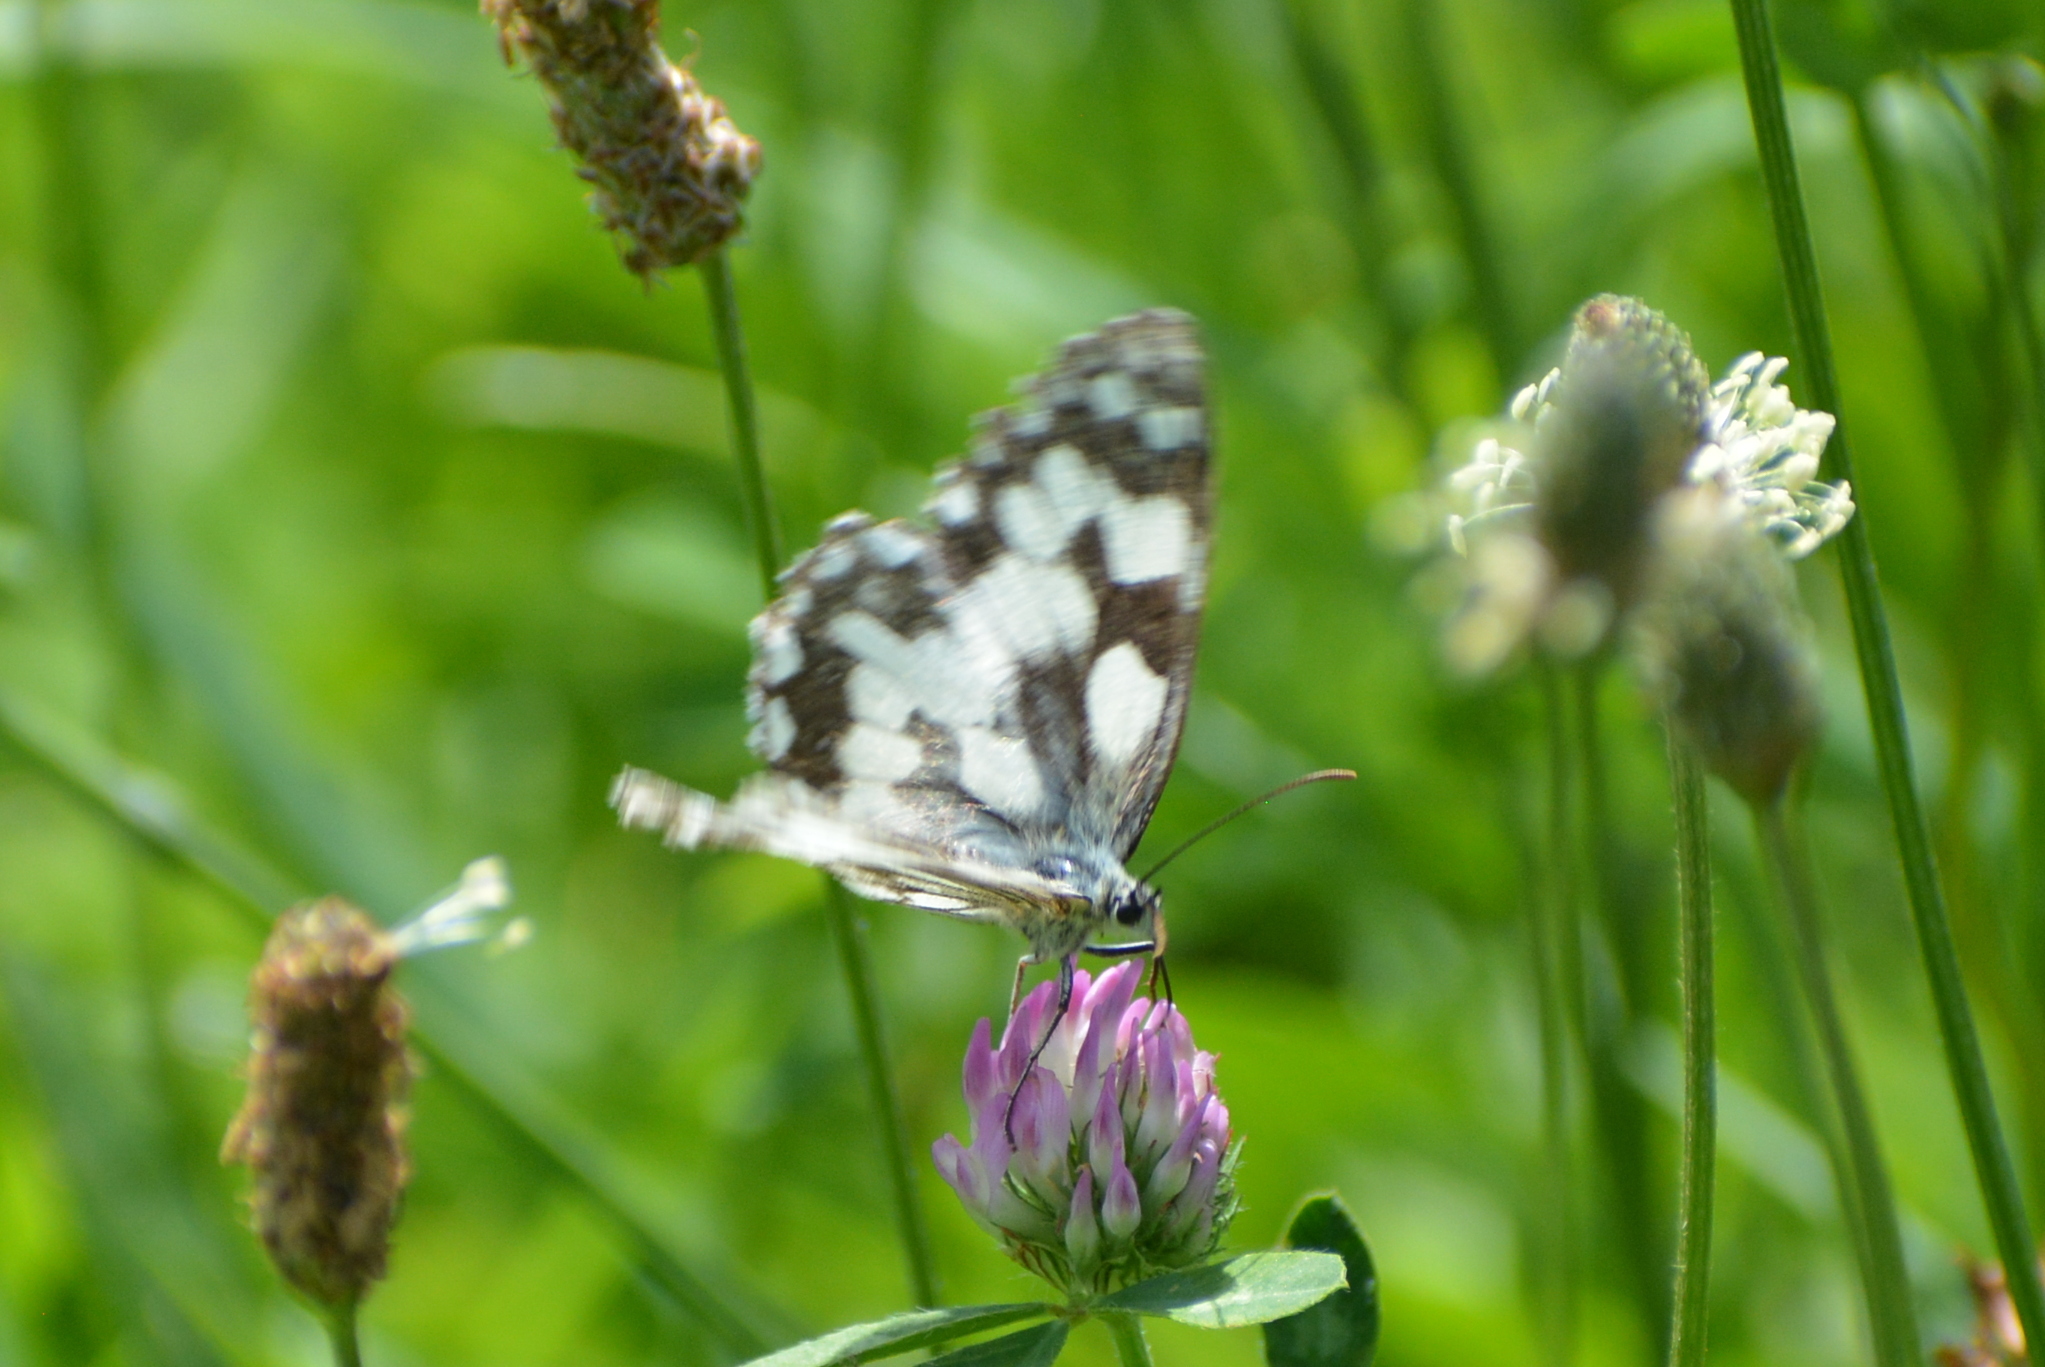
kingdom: Animalia
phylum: Arthropoda
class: Insecta
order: Lepidoptera
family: Nymphalidae
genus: Melanargia
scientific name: Melanargia galathea
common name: Marbled white
